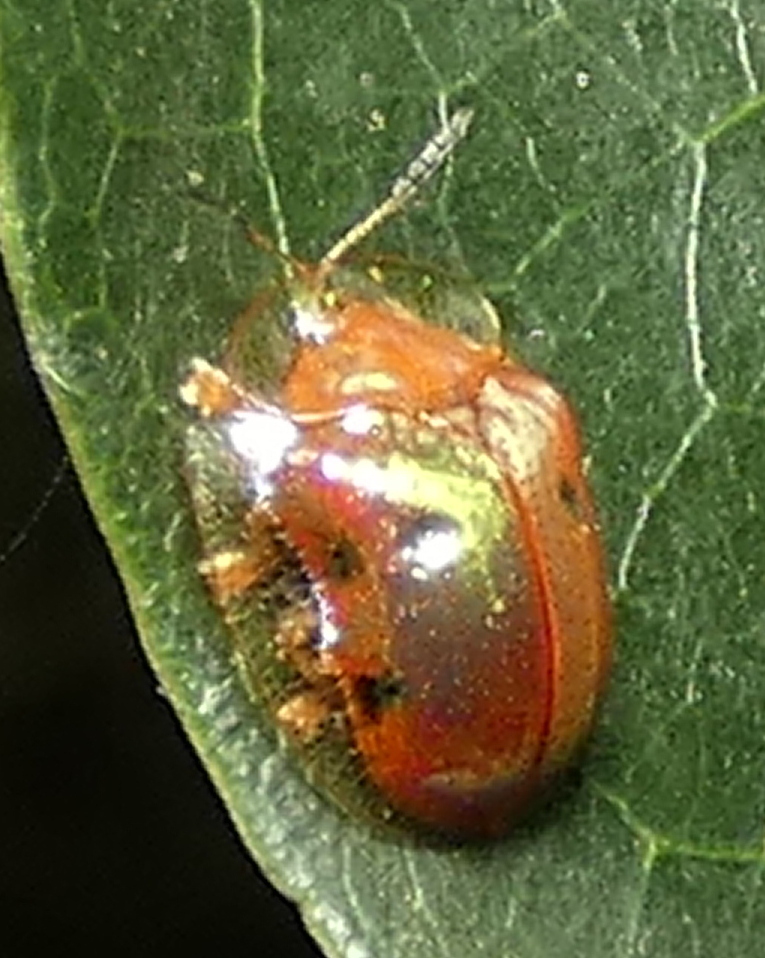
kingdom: Animalia
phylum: Arthropoda
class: Insecta
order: Coleoptera
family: Chrysomelidae
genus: Charidotella
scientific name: Charidotella sexpunctata
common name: Golden tortoise beetle
